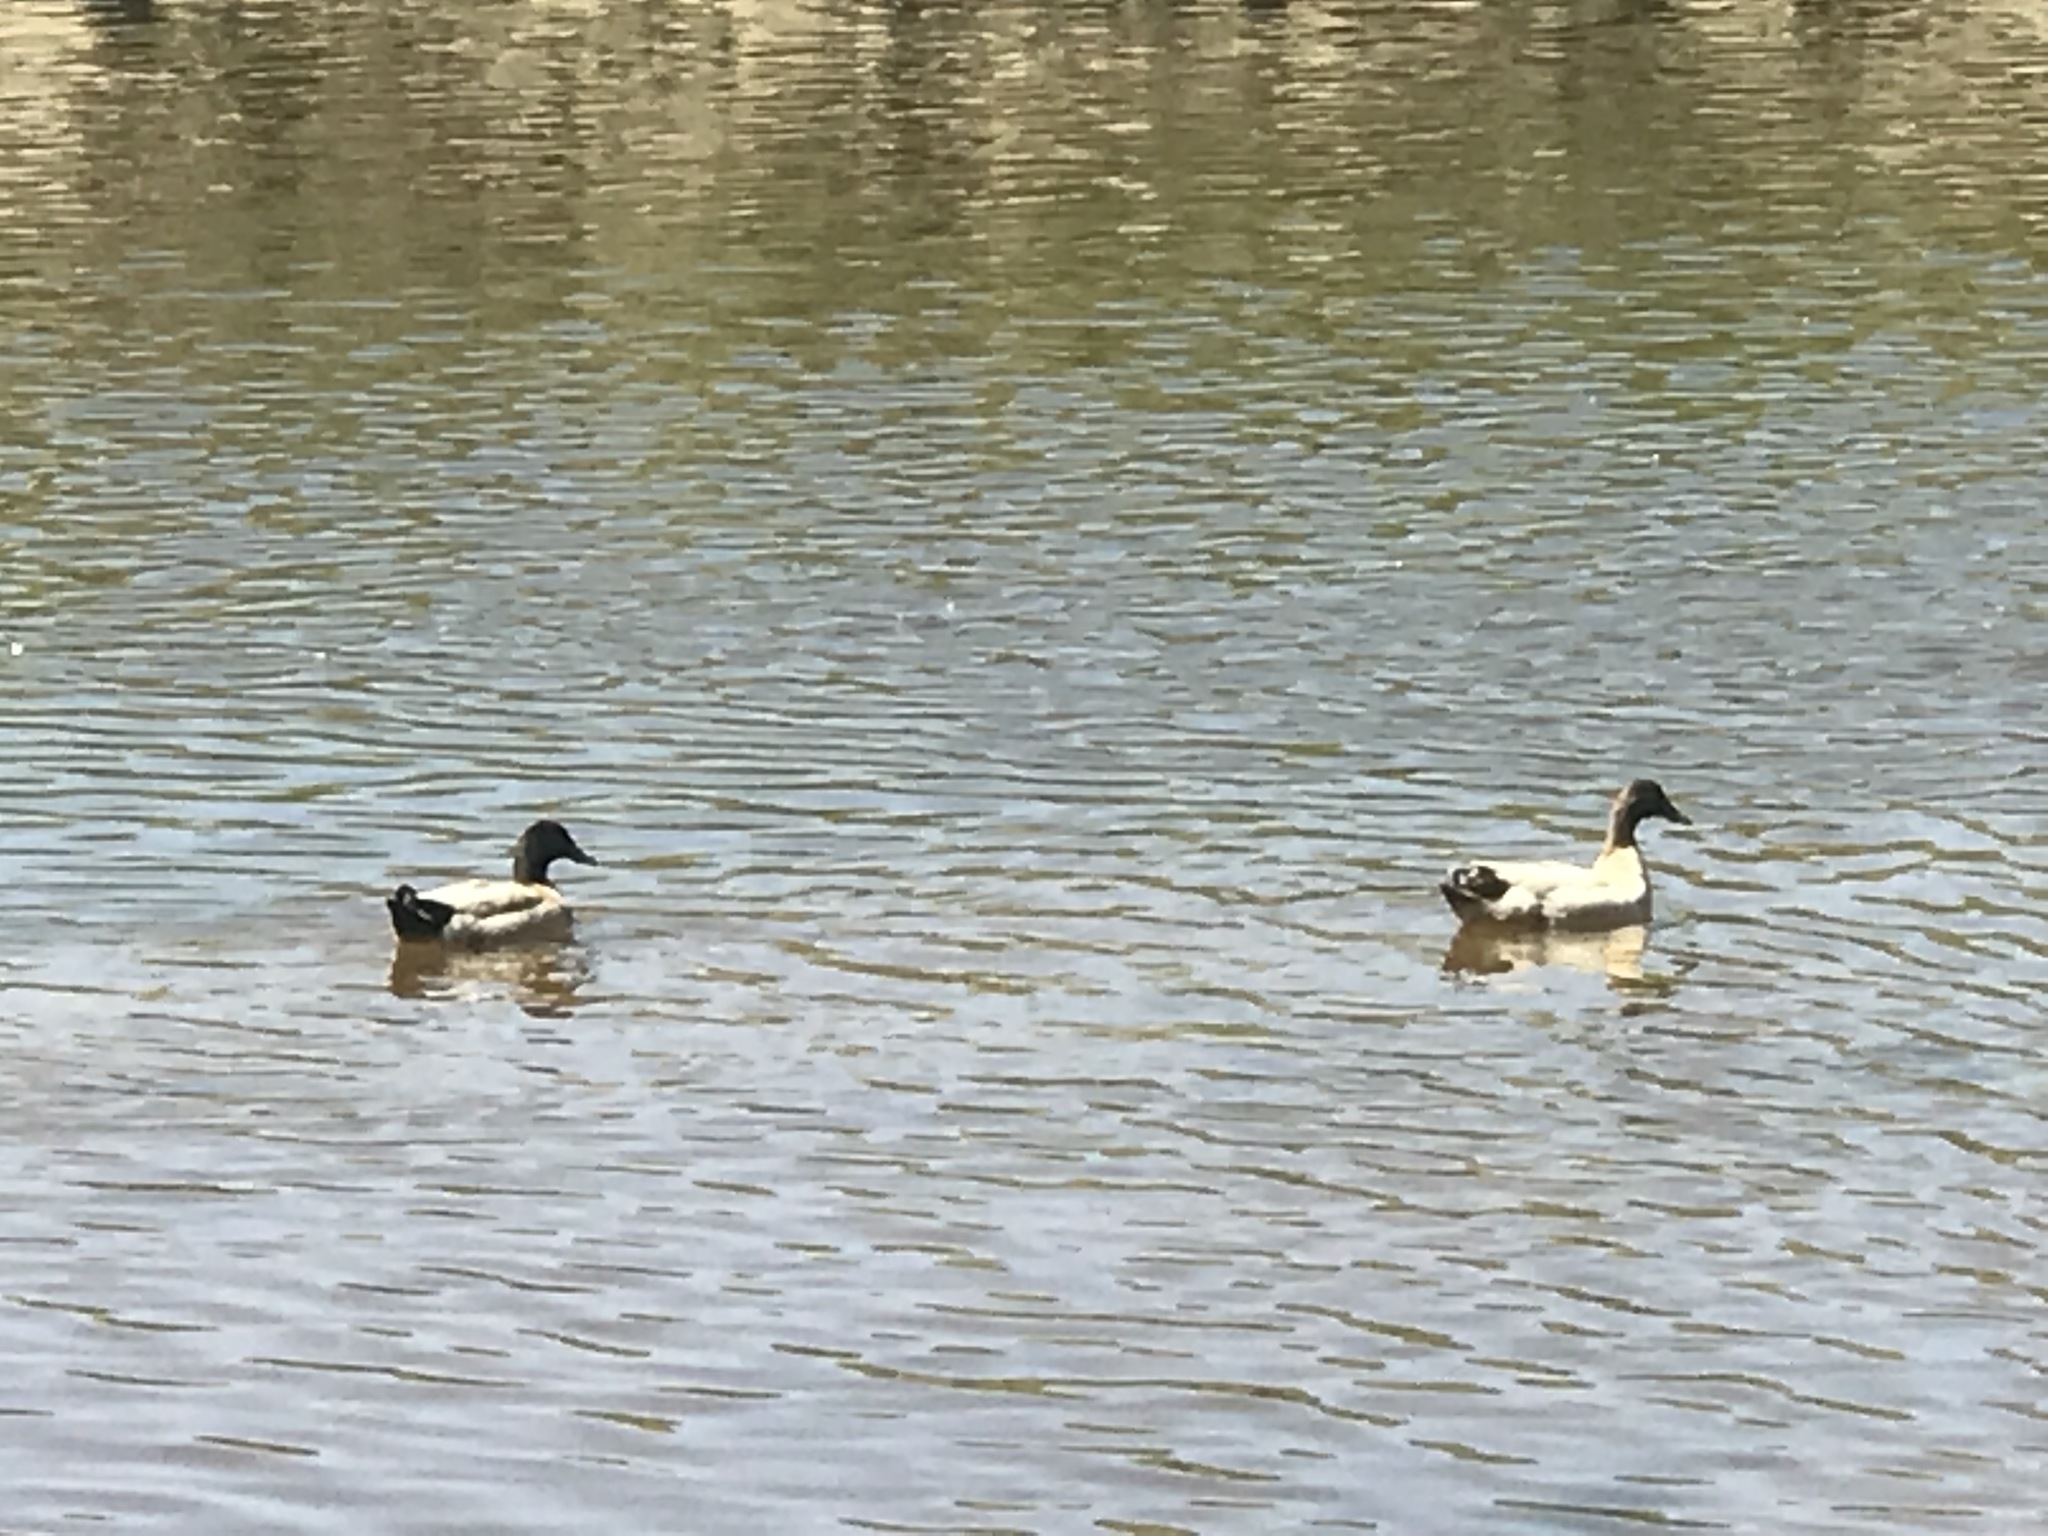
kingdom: Animalia
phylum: Chordata
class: Aves
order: Anseriformes
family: Anatidae
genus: Anas
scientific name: Anas platyrhynchos
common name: Mallard
